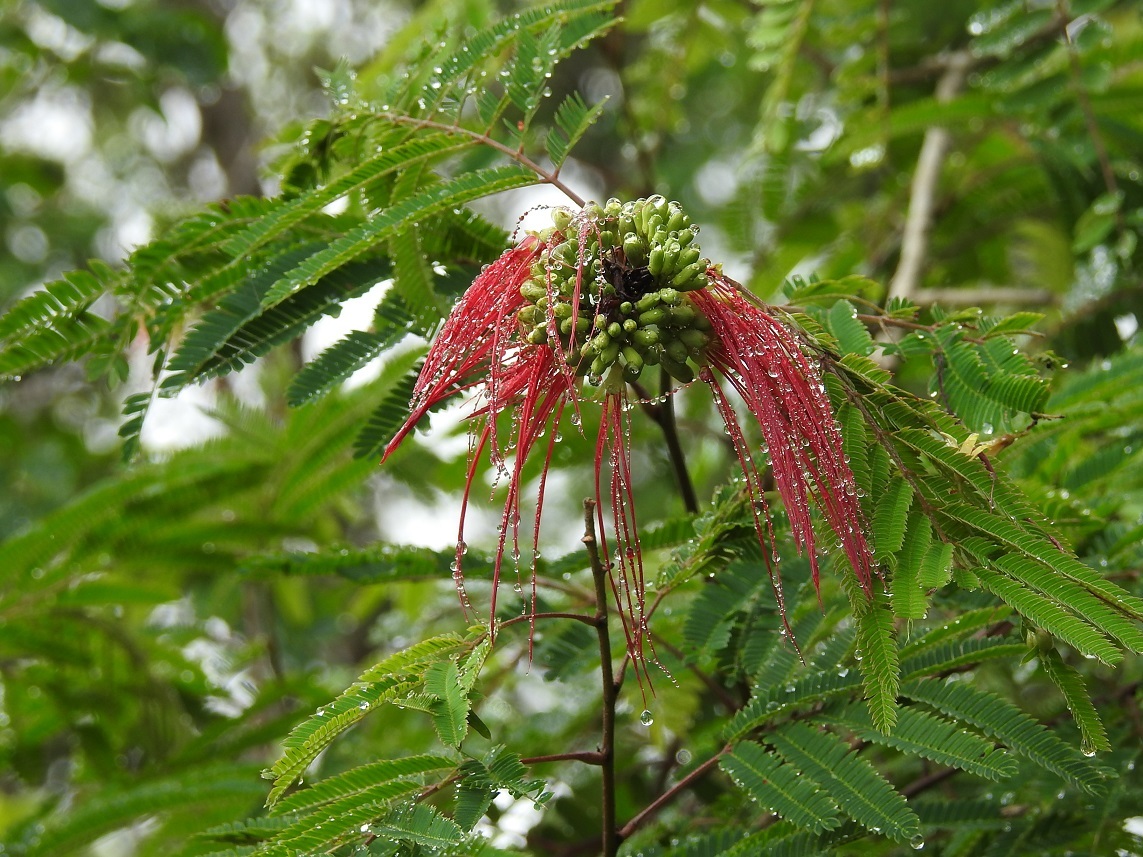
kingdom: Plantae
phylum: Tracheophyta
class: Magnoliopsida
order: Fabales
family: Fabaceae
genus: Calliandra
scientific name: Calliandra houstoniana
